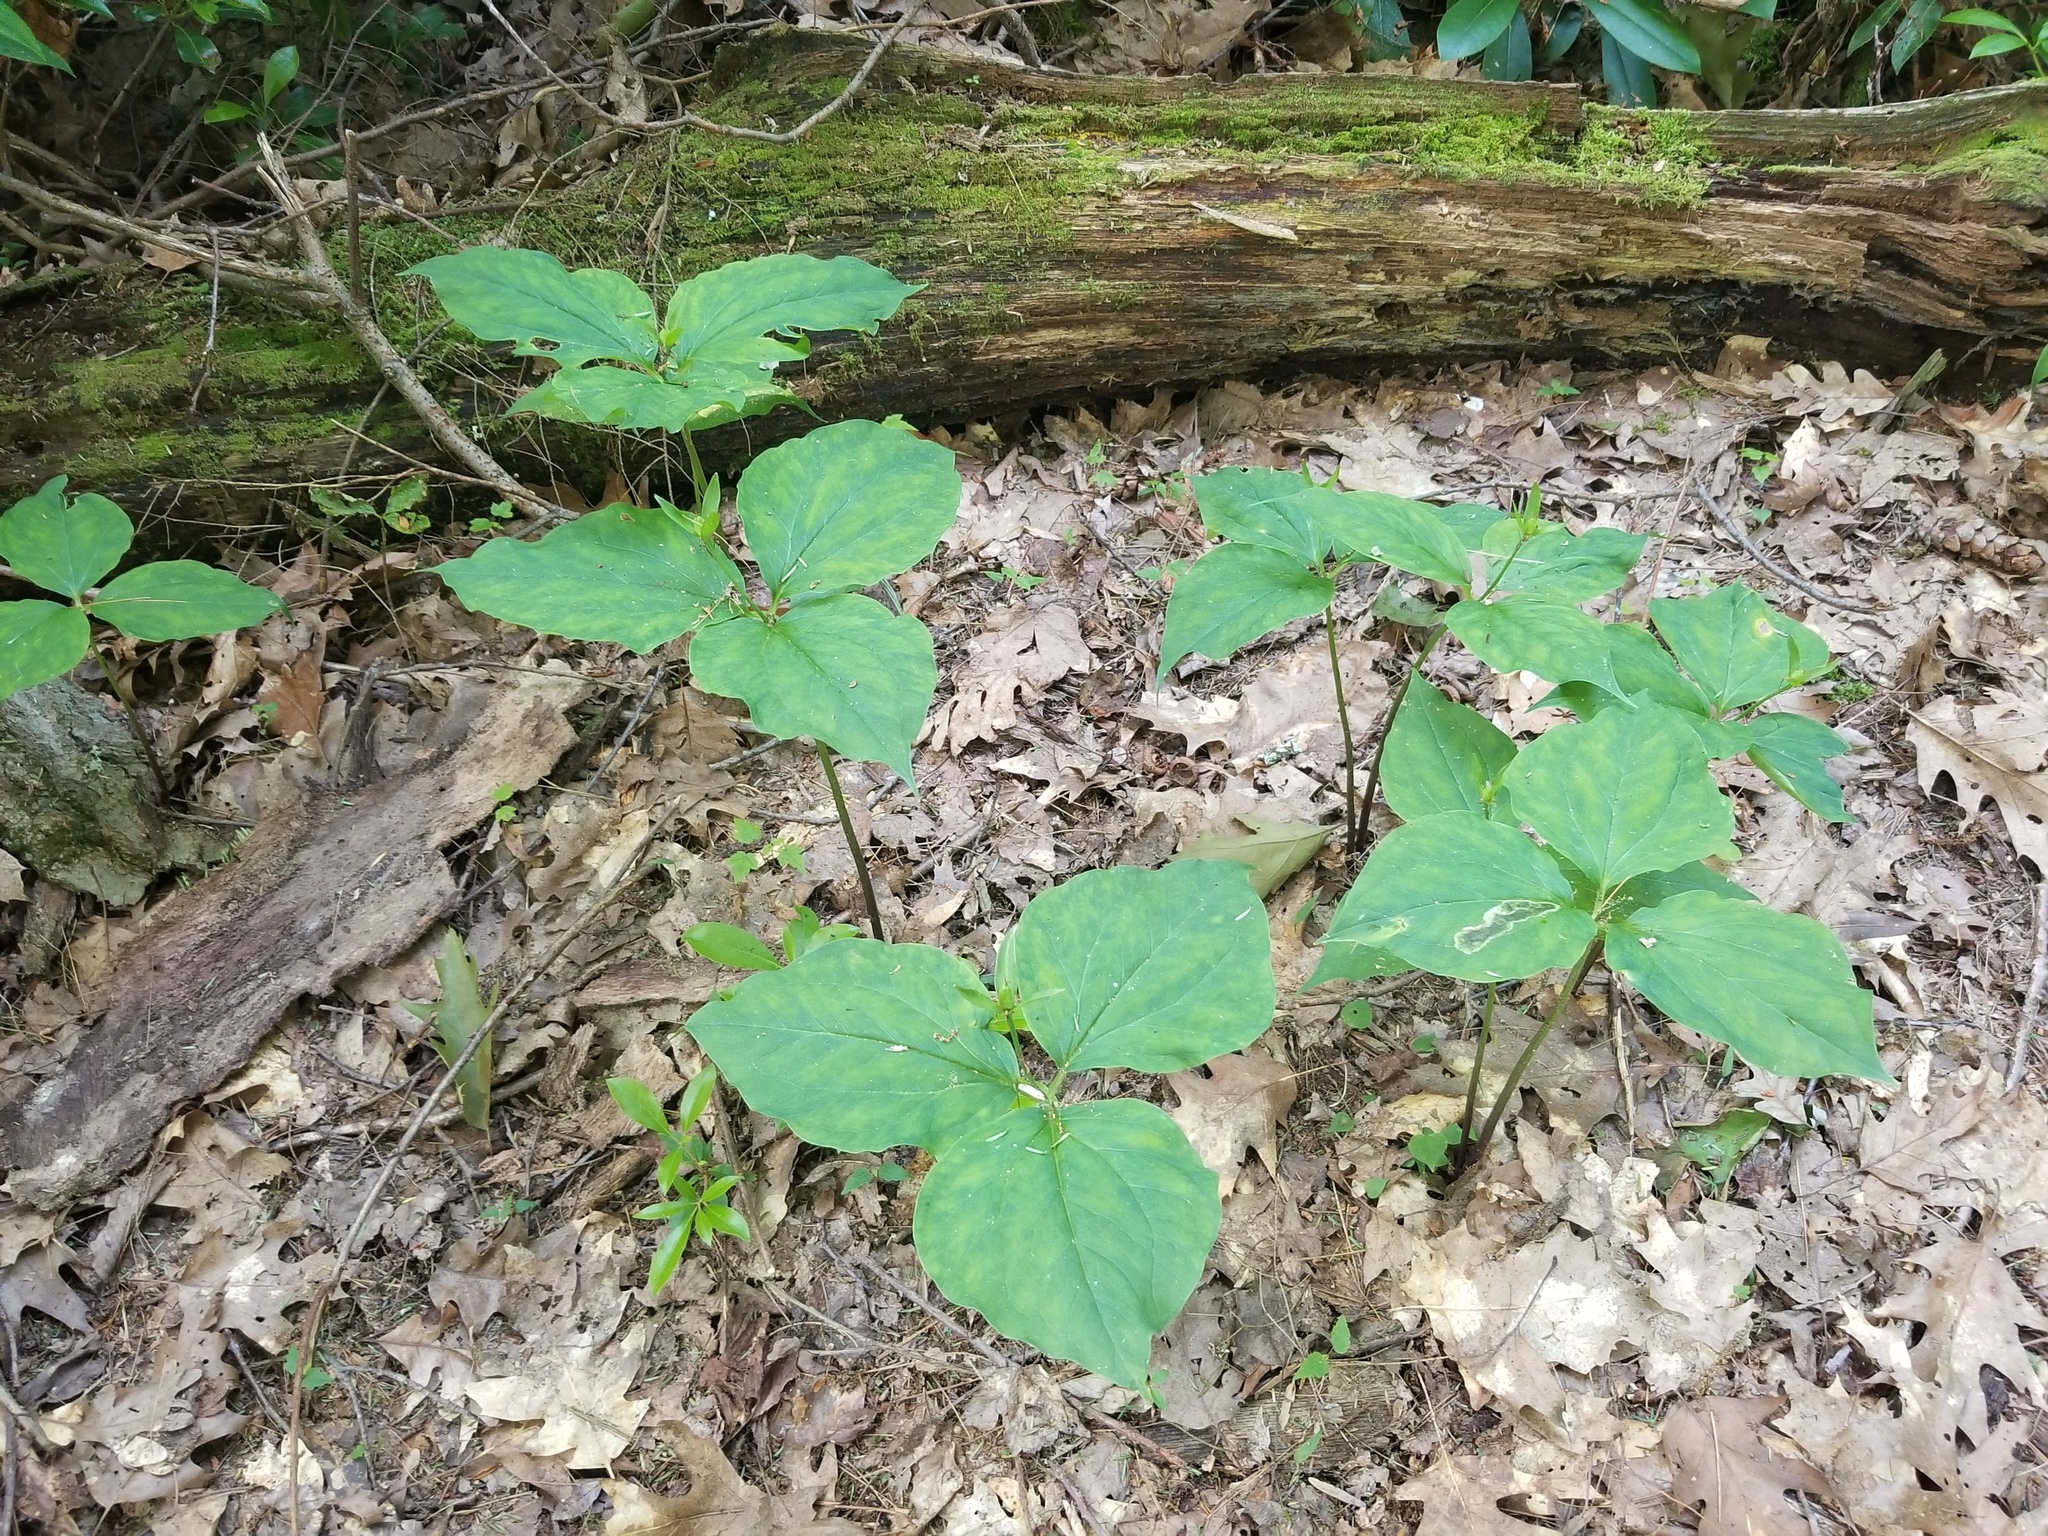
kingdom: Plantae
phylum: Tracheophyta
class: Liliopsida
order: Liliales
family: Melanthiaceae
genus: Trillium
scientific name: Trillium undulatum
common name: Paint trillium
